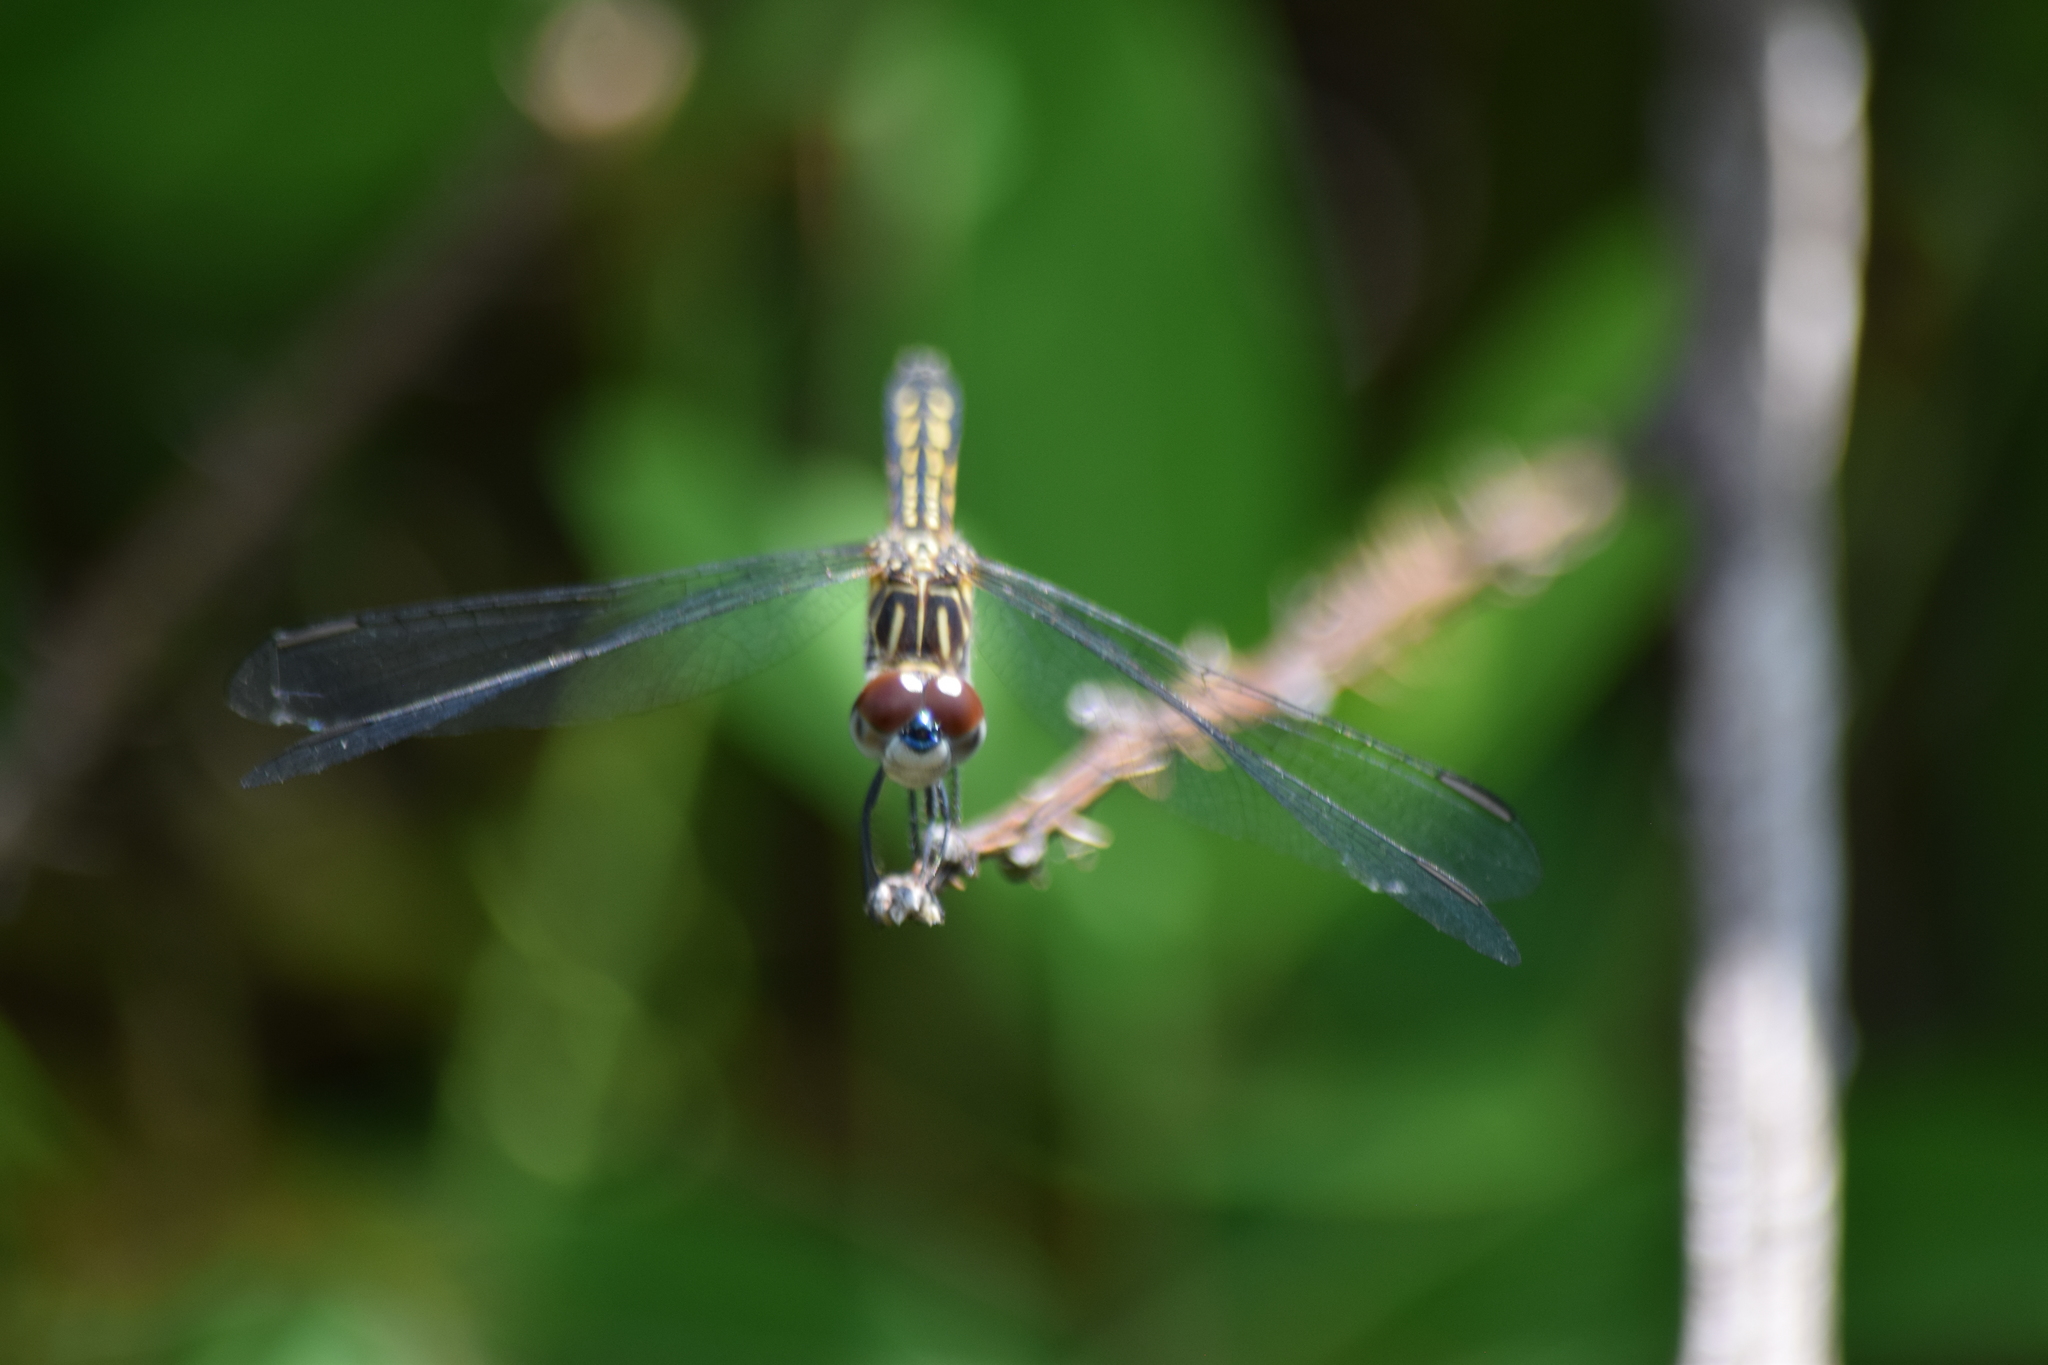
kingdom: Animalia
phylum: Arthropoda
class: Insecta
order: Odonata
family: Libellulidae
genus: Pachydiplax
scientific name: Pachydiplax longipennis
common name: Blue dasher
